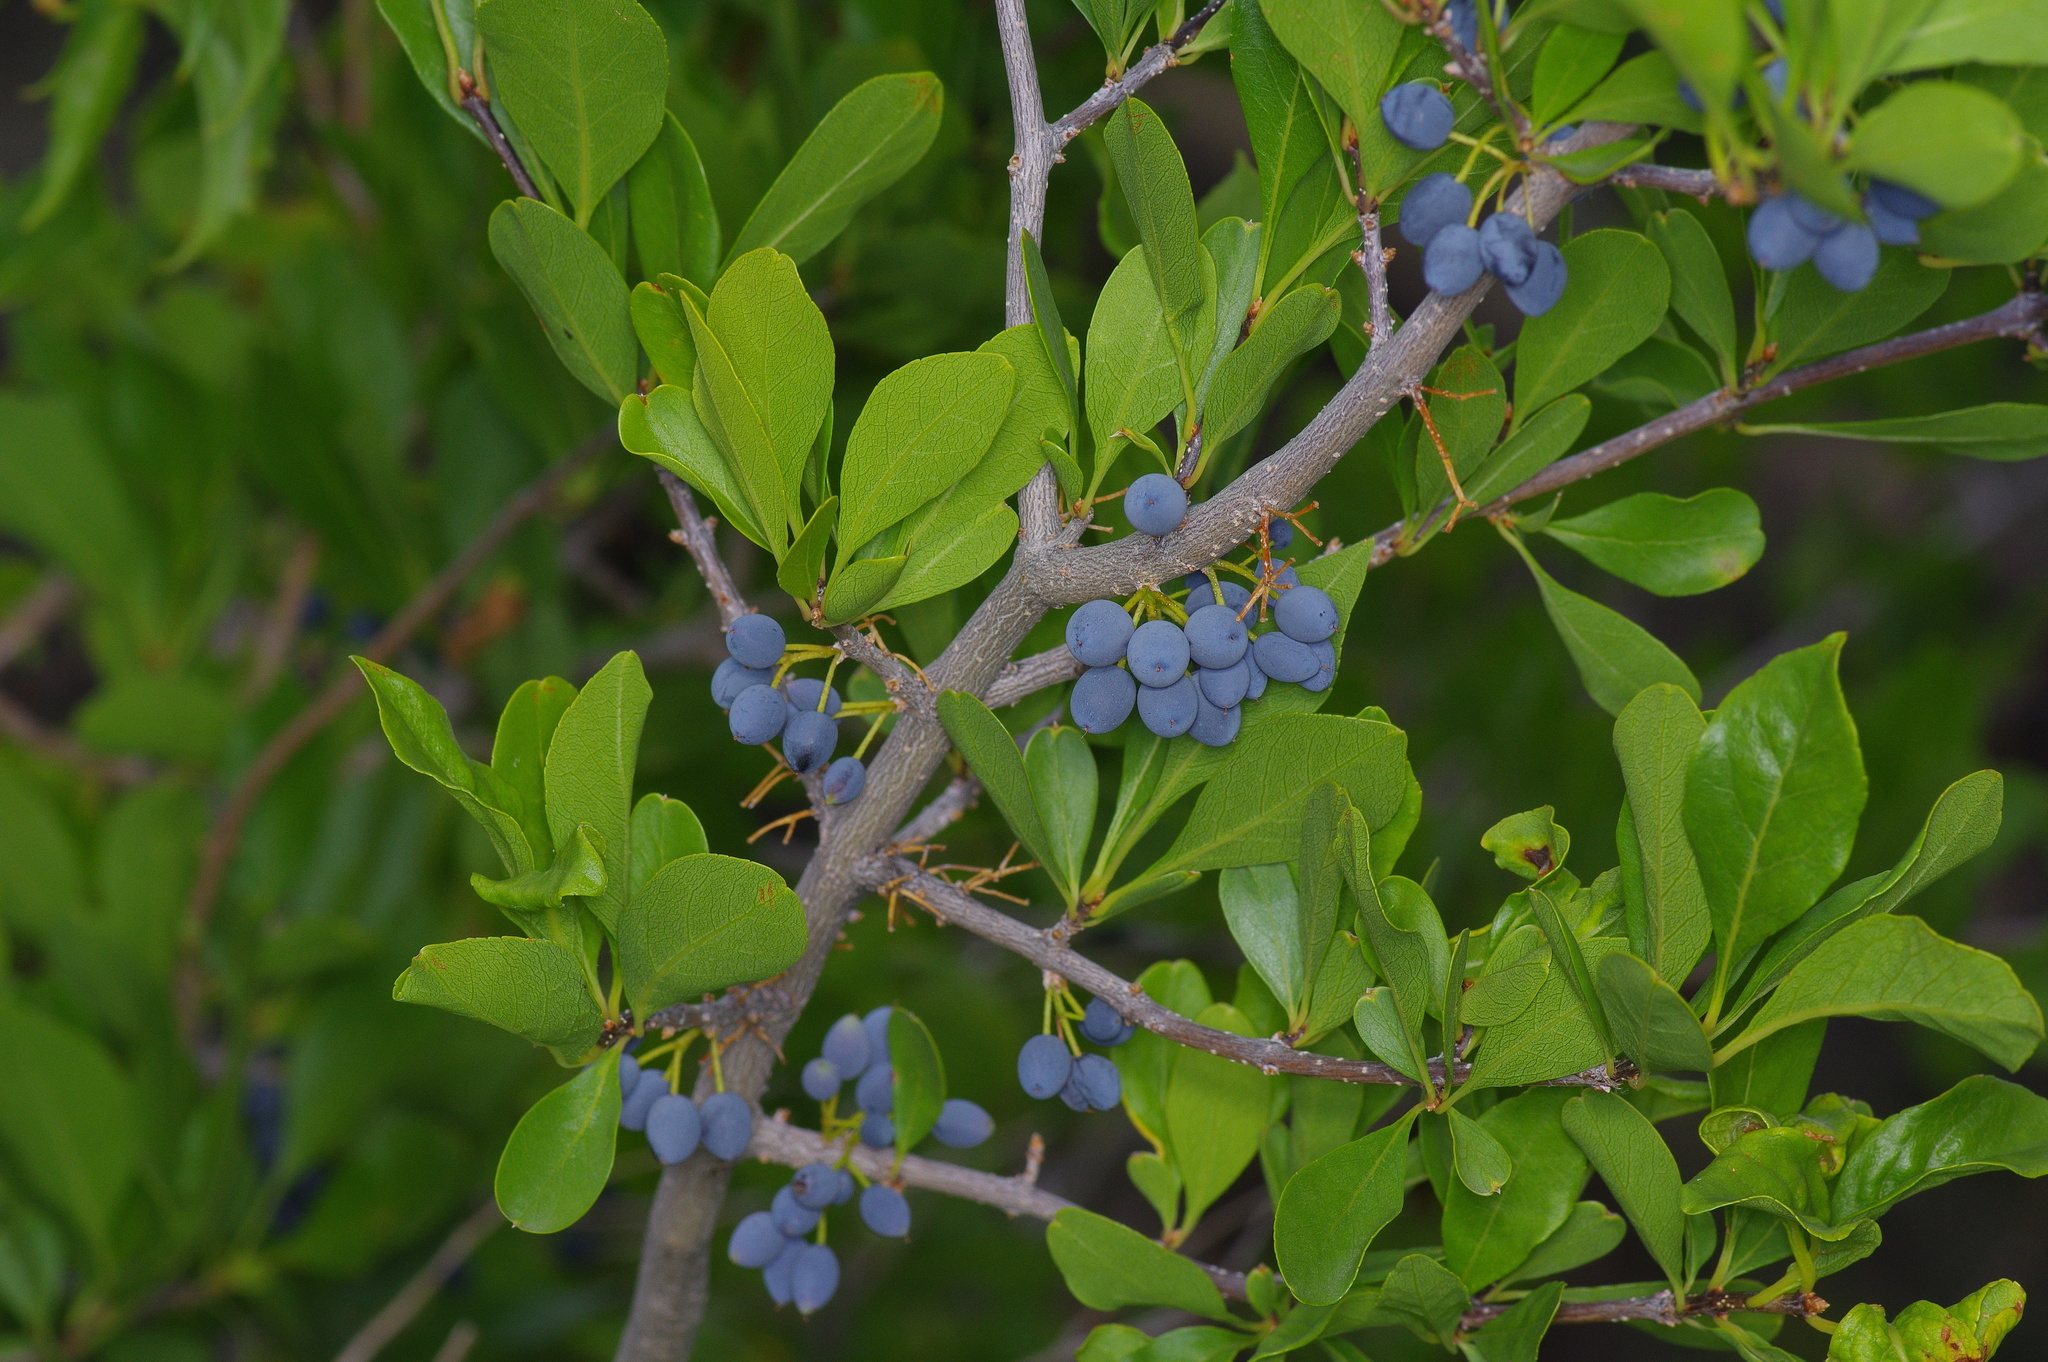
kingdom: Plantae
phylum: Tracheophyta
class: Magnoliopsida
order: Lamiales
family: Oleaceae
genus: Forestiera
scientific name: Forestiera pubescens
